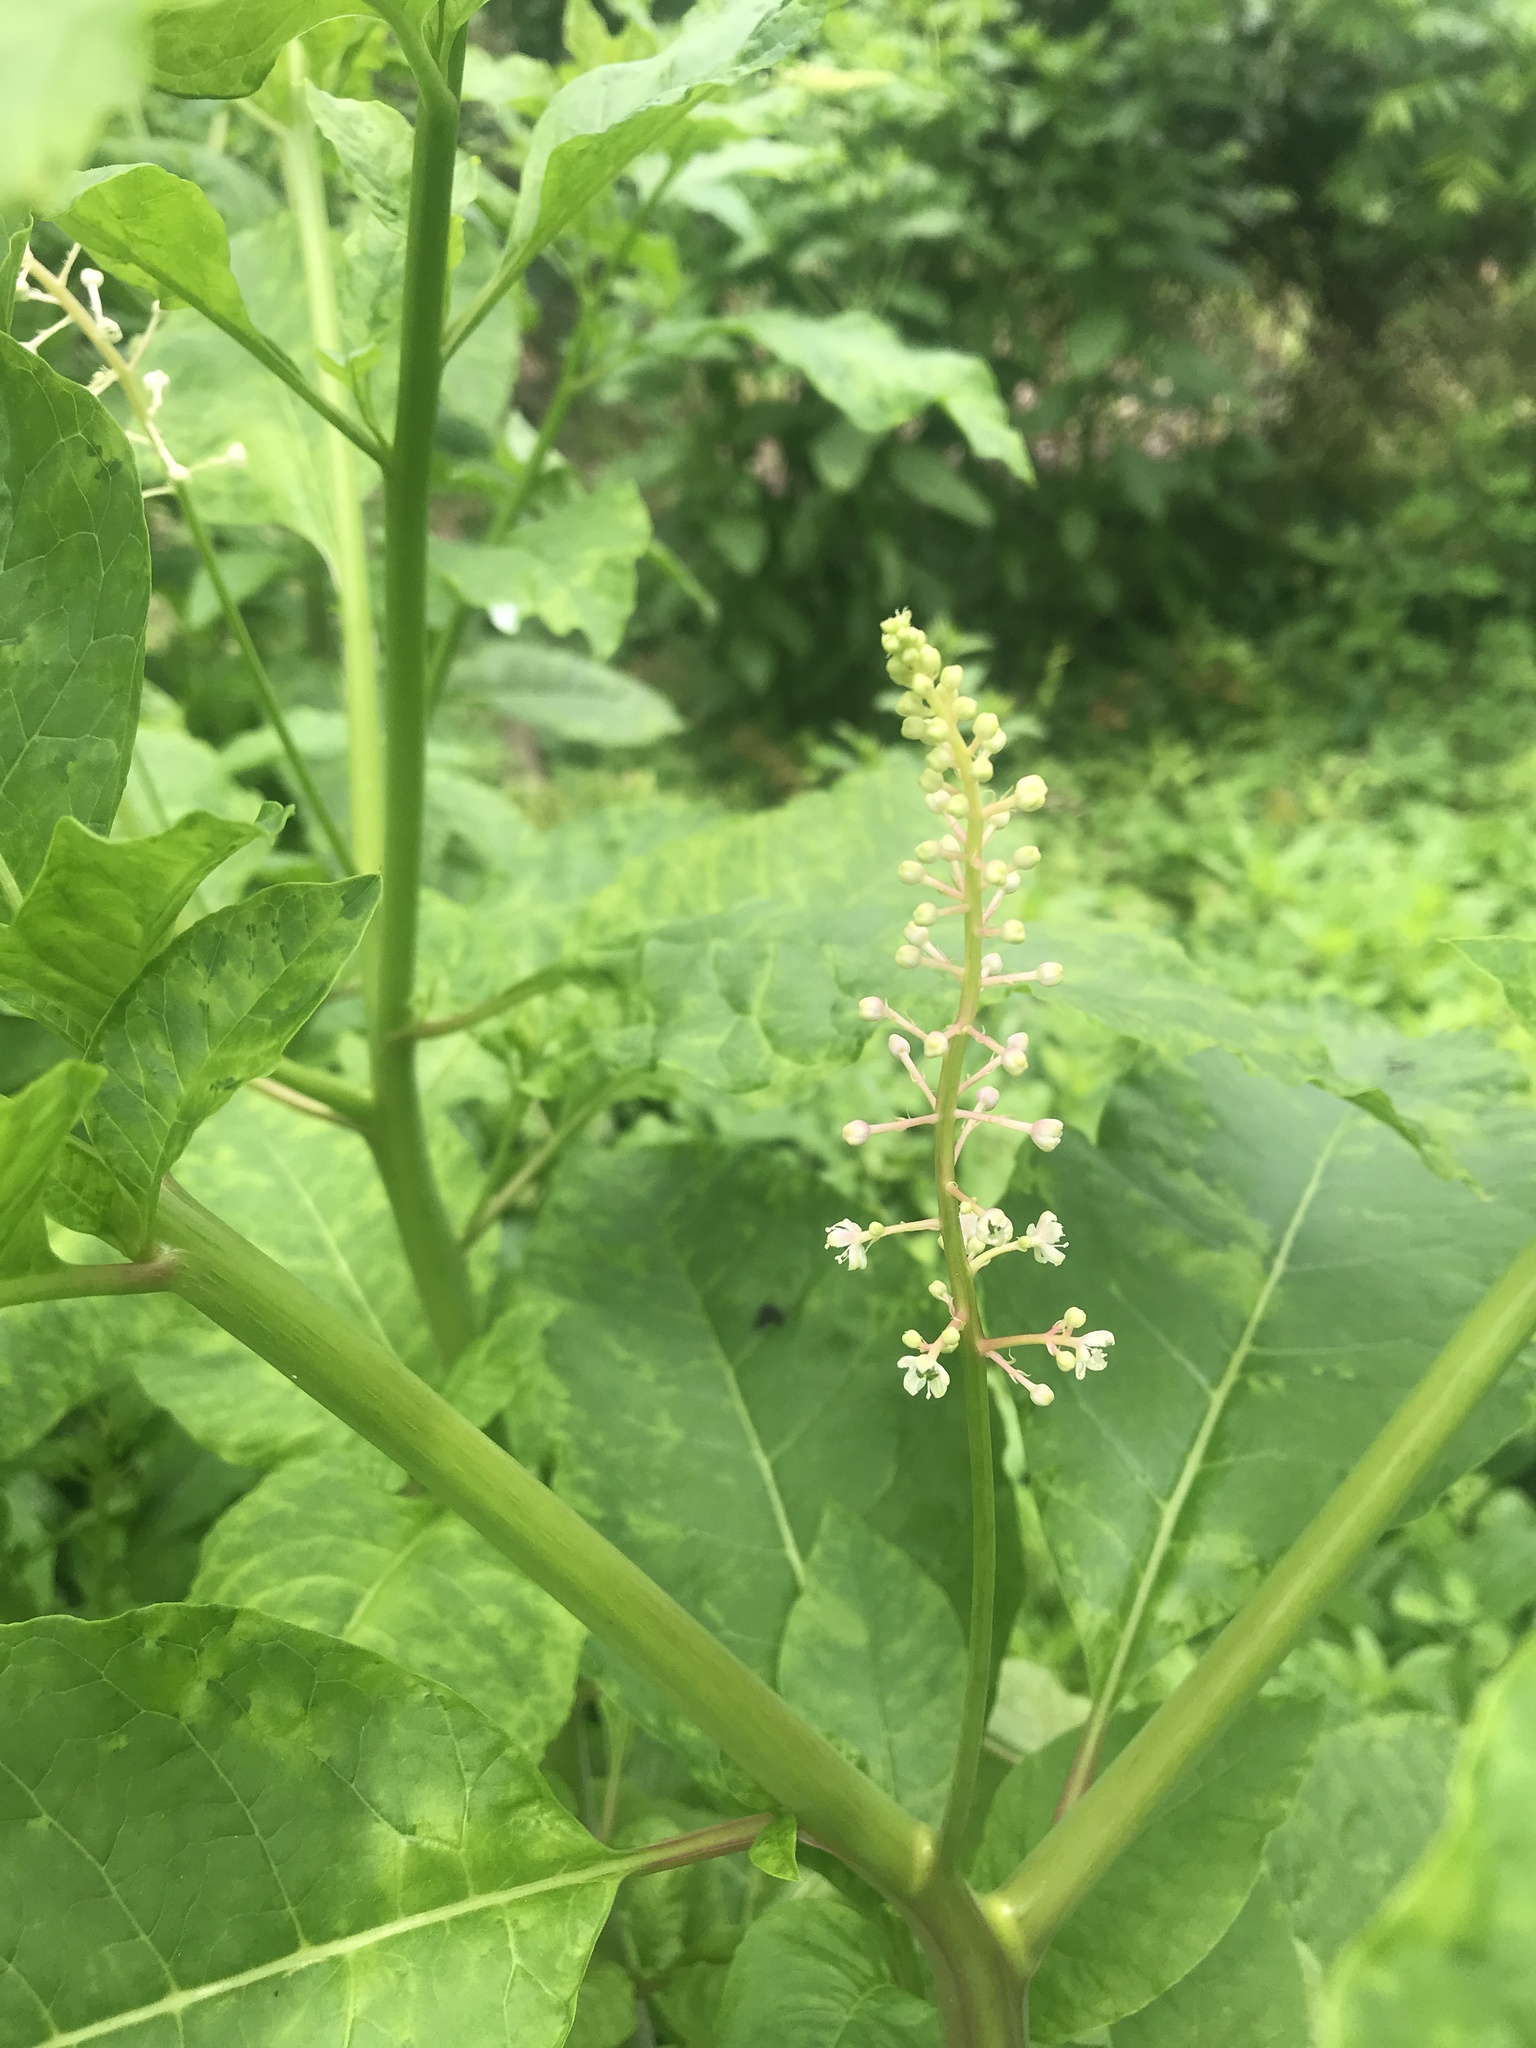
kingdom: Plantae
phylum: Tracheophyta
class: Magnoliopsida
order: Caryophyllales
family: Phytolaccaceae
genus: Phytolacca
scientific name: Phytolacca americana
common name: American pokeweed
